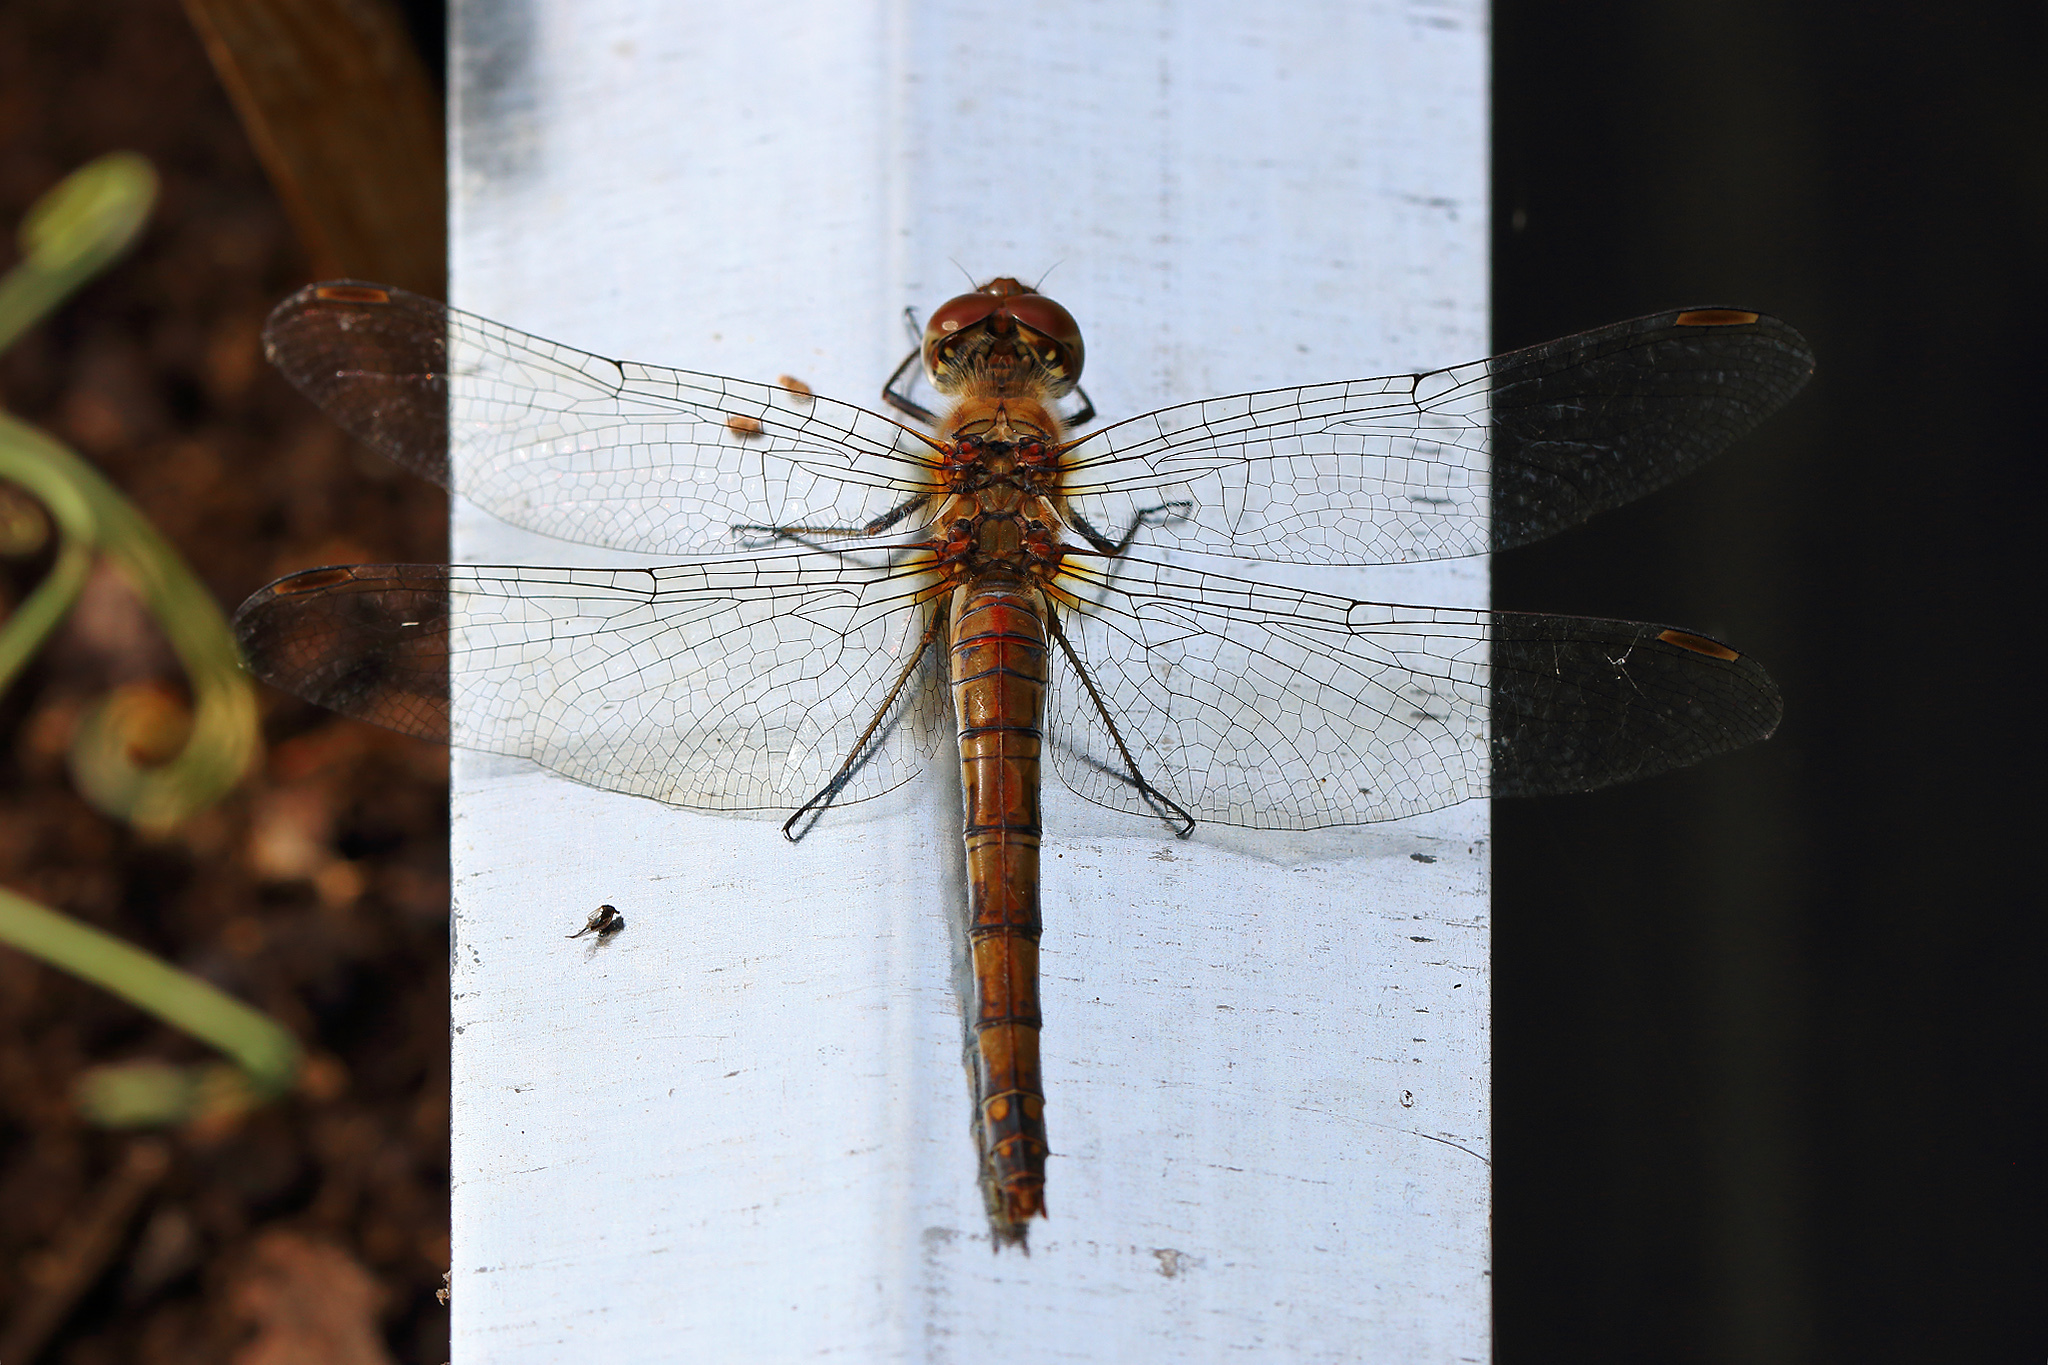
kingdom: Animalia
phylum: Arthropoda
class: Insecta
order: Odonata
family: Libellulidae
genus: Sympetrum
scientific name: Sympetrum striolatum
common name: Common darter
